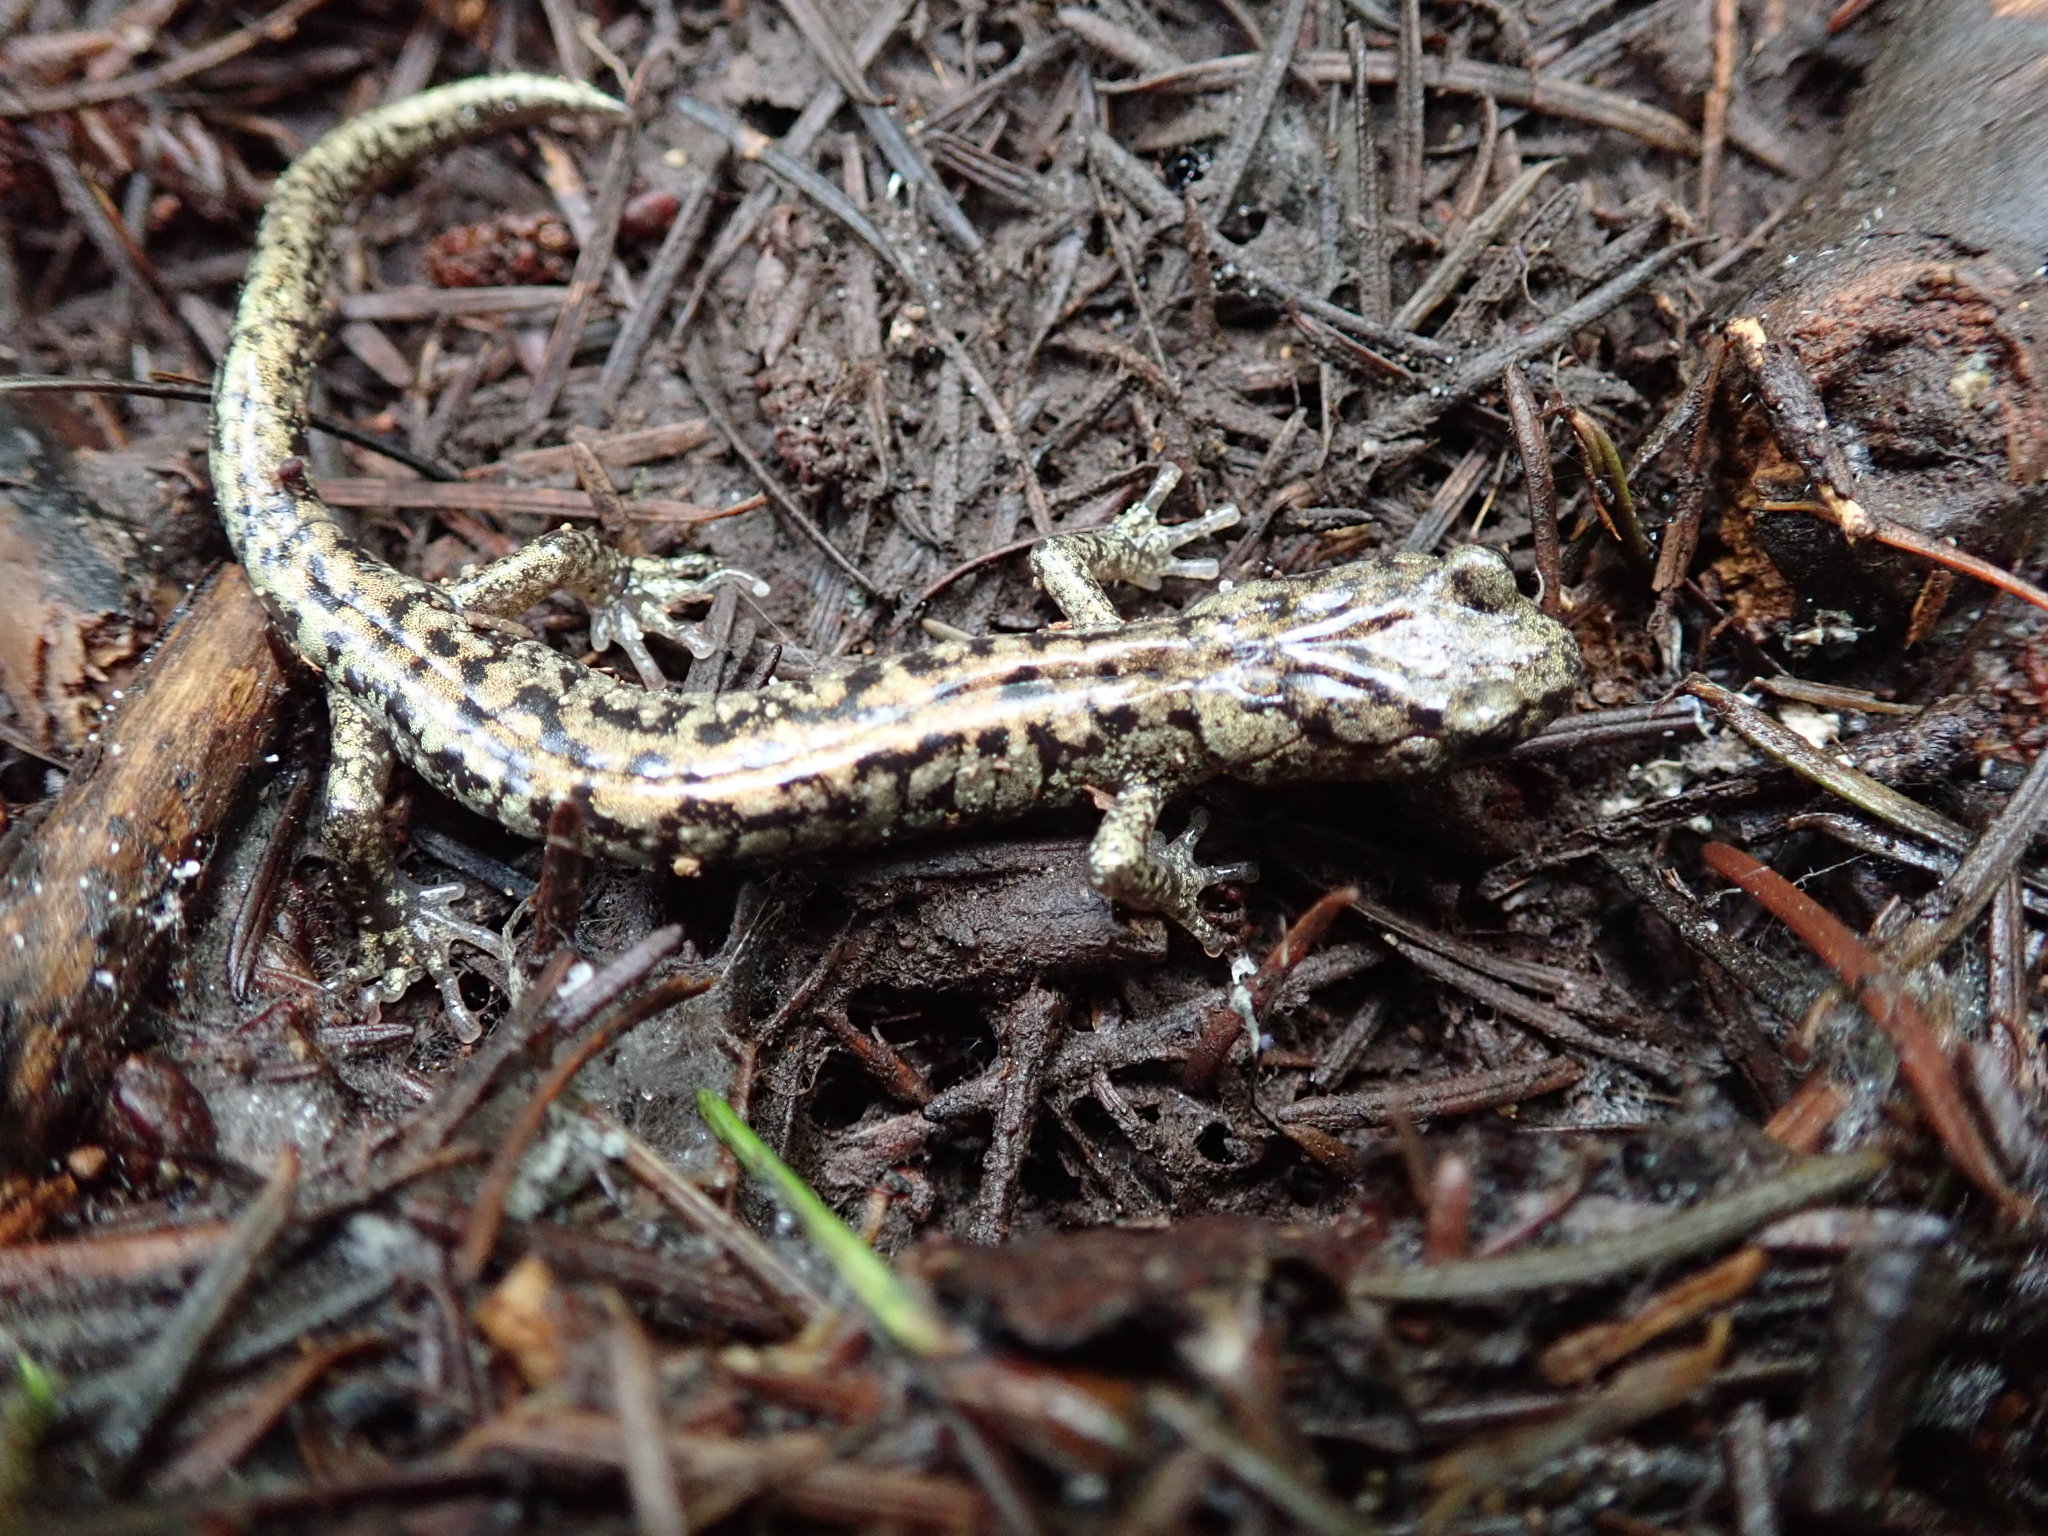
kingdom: Animalia
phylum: Chordata
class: Amphibia
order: Caudata
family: Plethodontidae
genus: Aneides
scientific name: Aneides vagrans
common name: Wandering salamander
